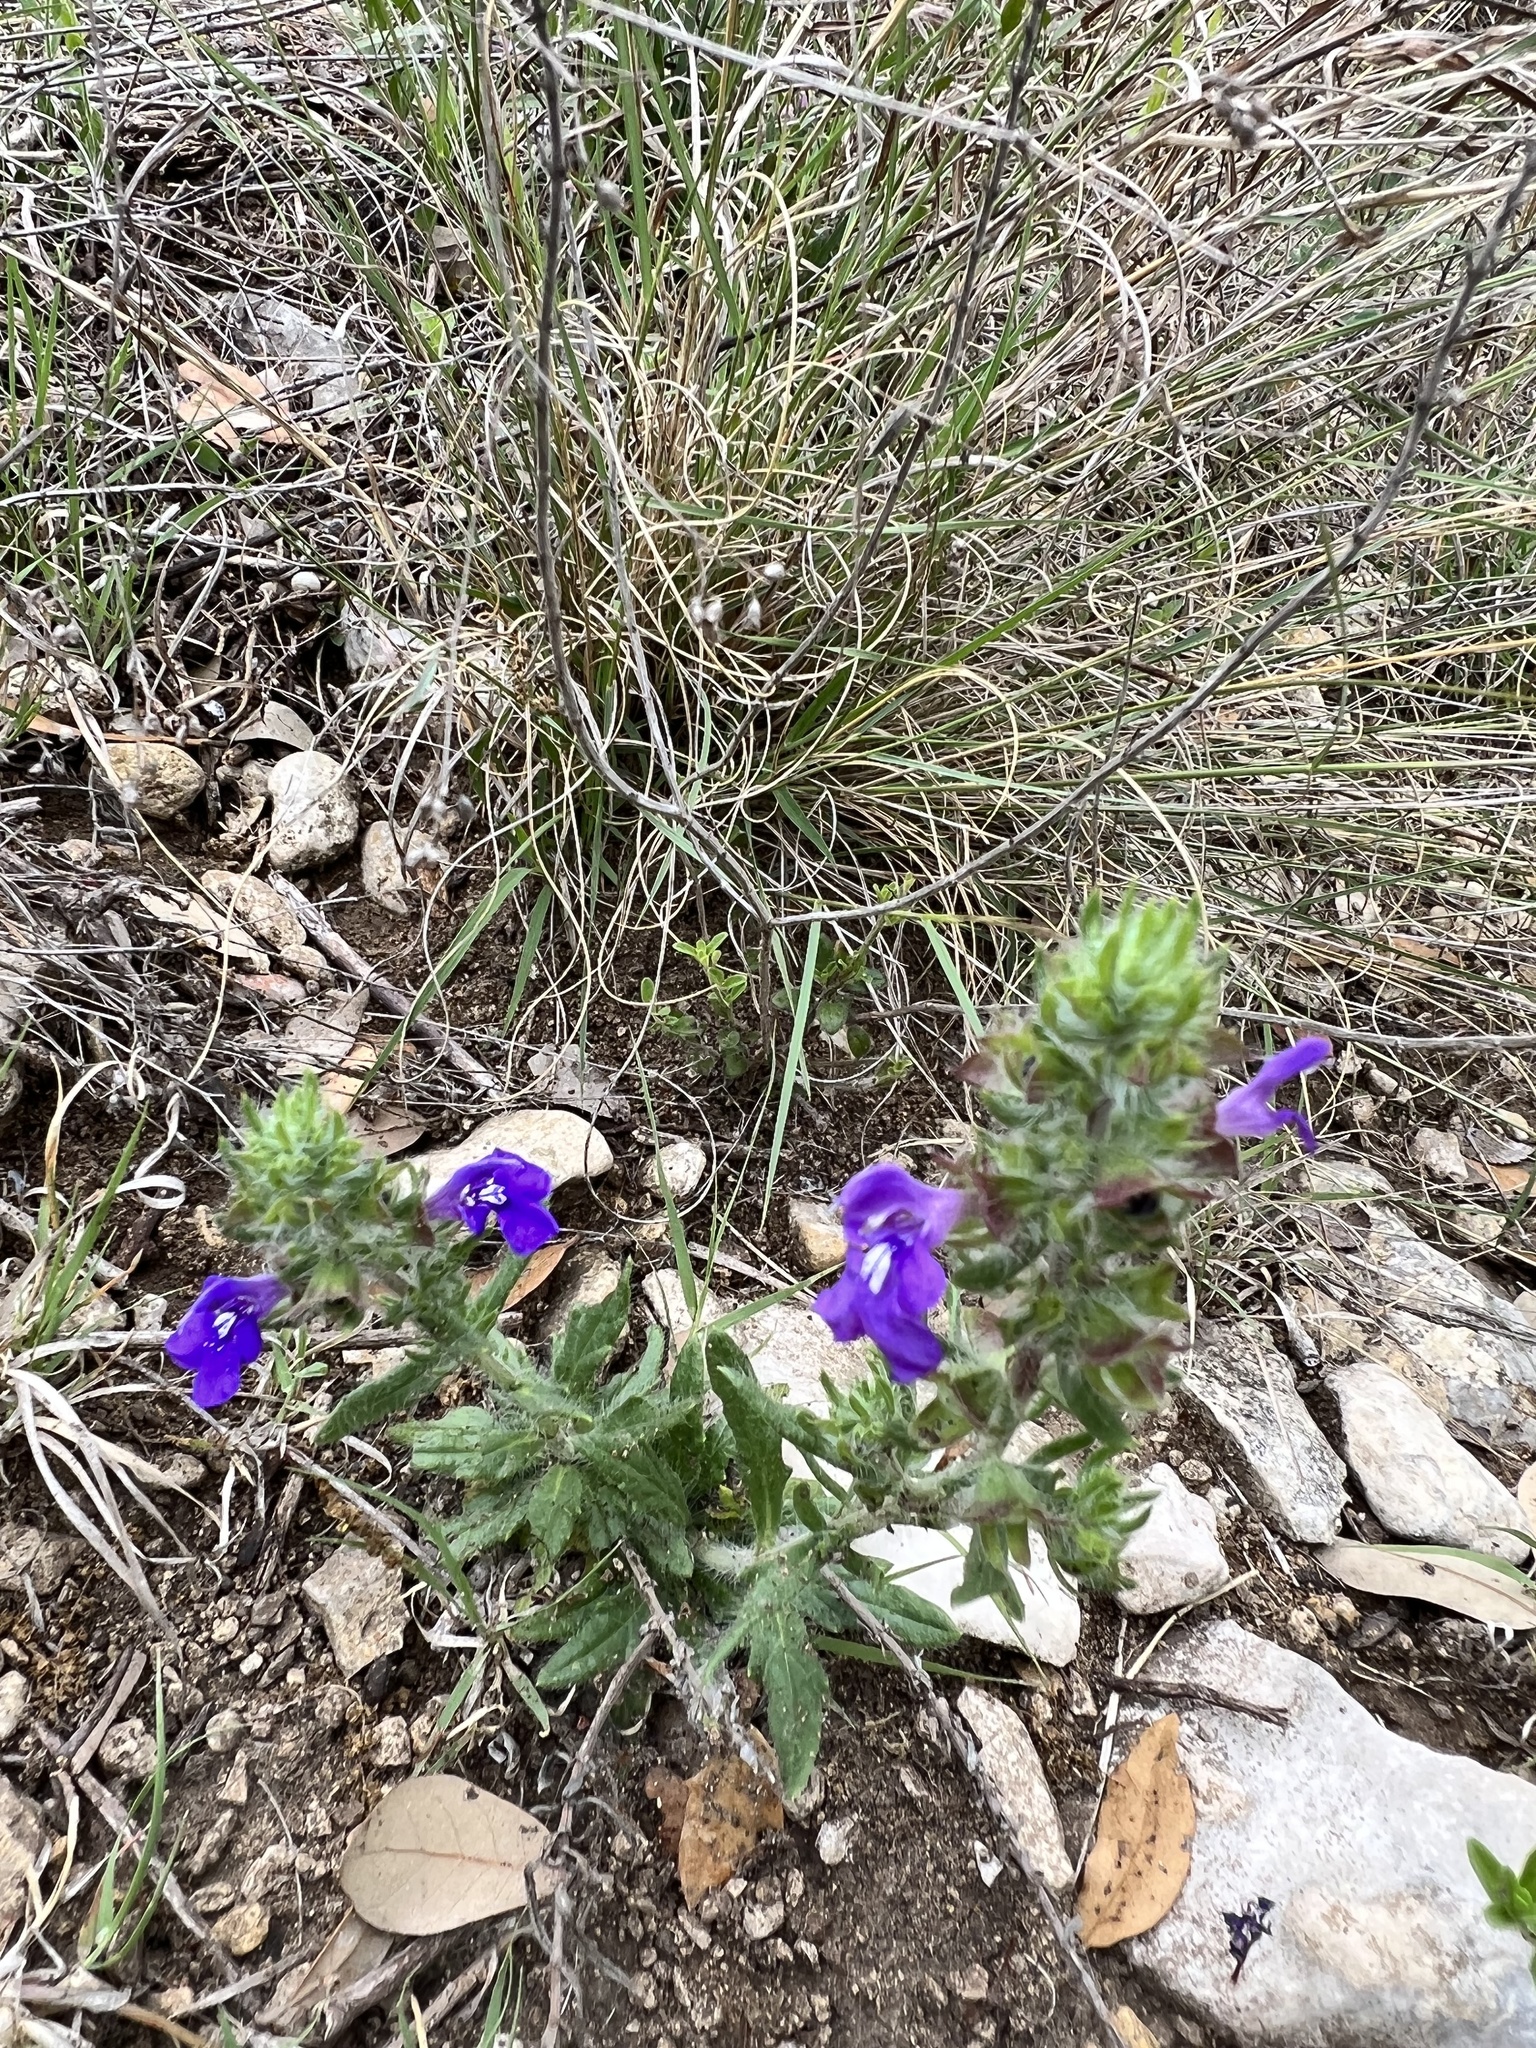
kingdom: Plantae
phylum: Tracheophyta
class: Magnoliopsida
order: Lamiales
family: Lamiaceae
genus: Salvia
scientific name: Salvia texana
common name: Texas sage
